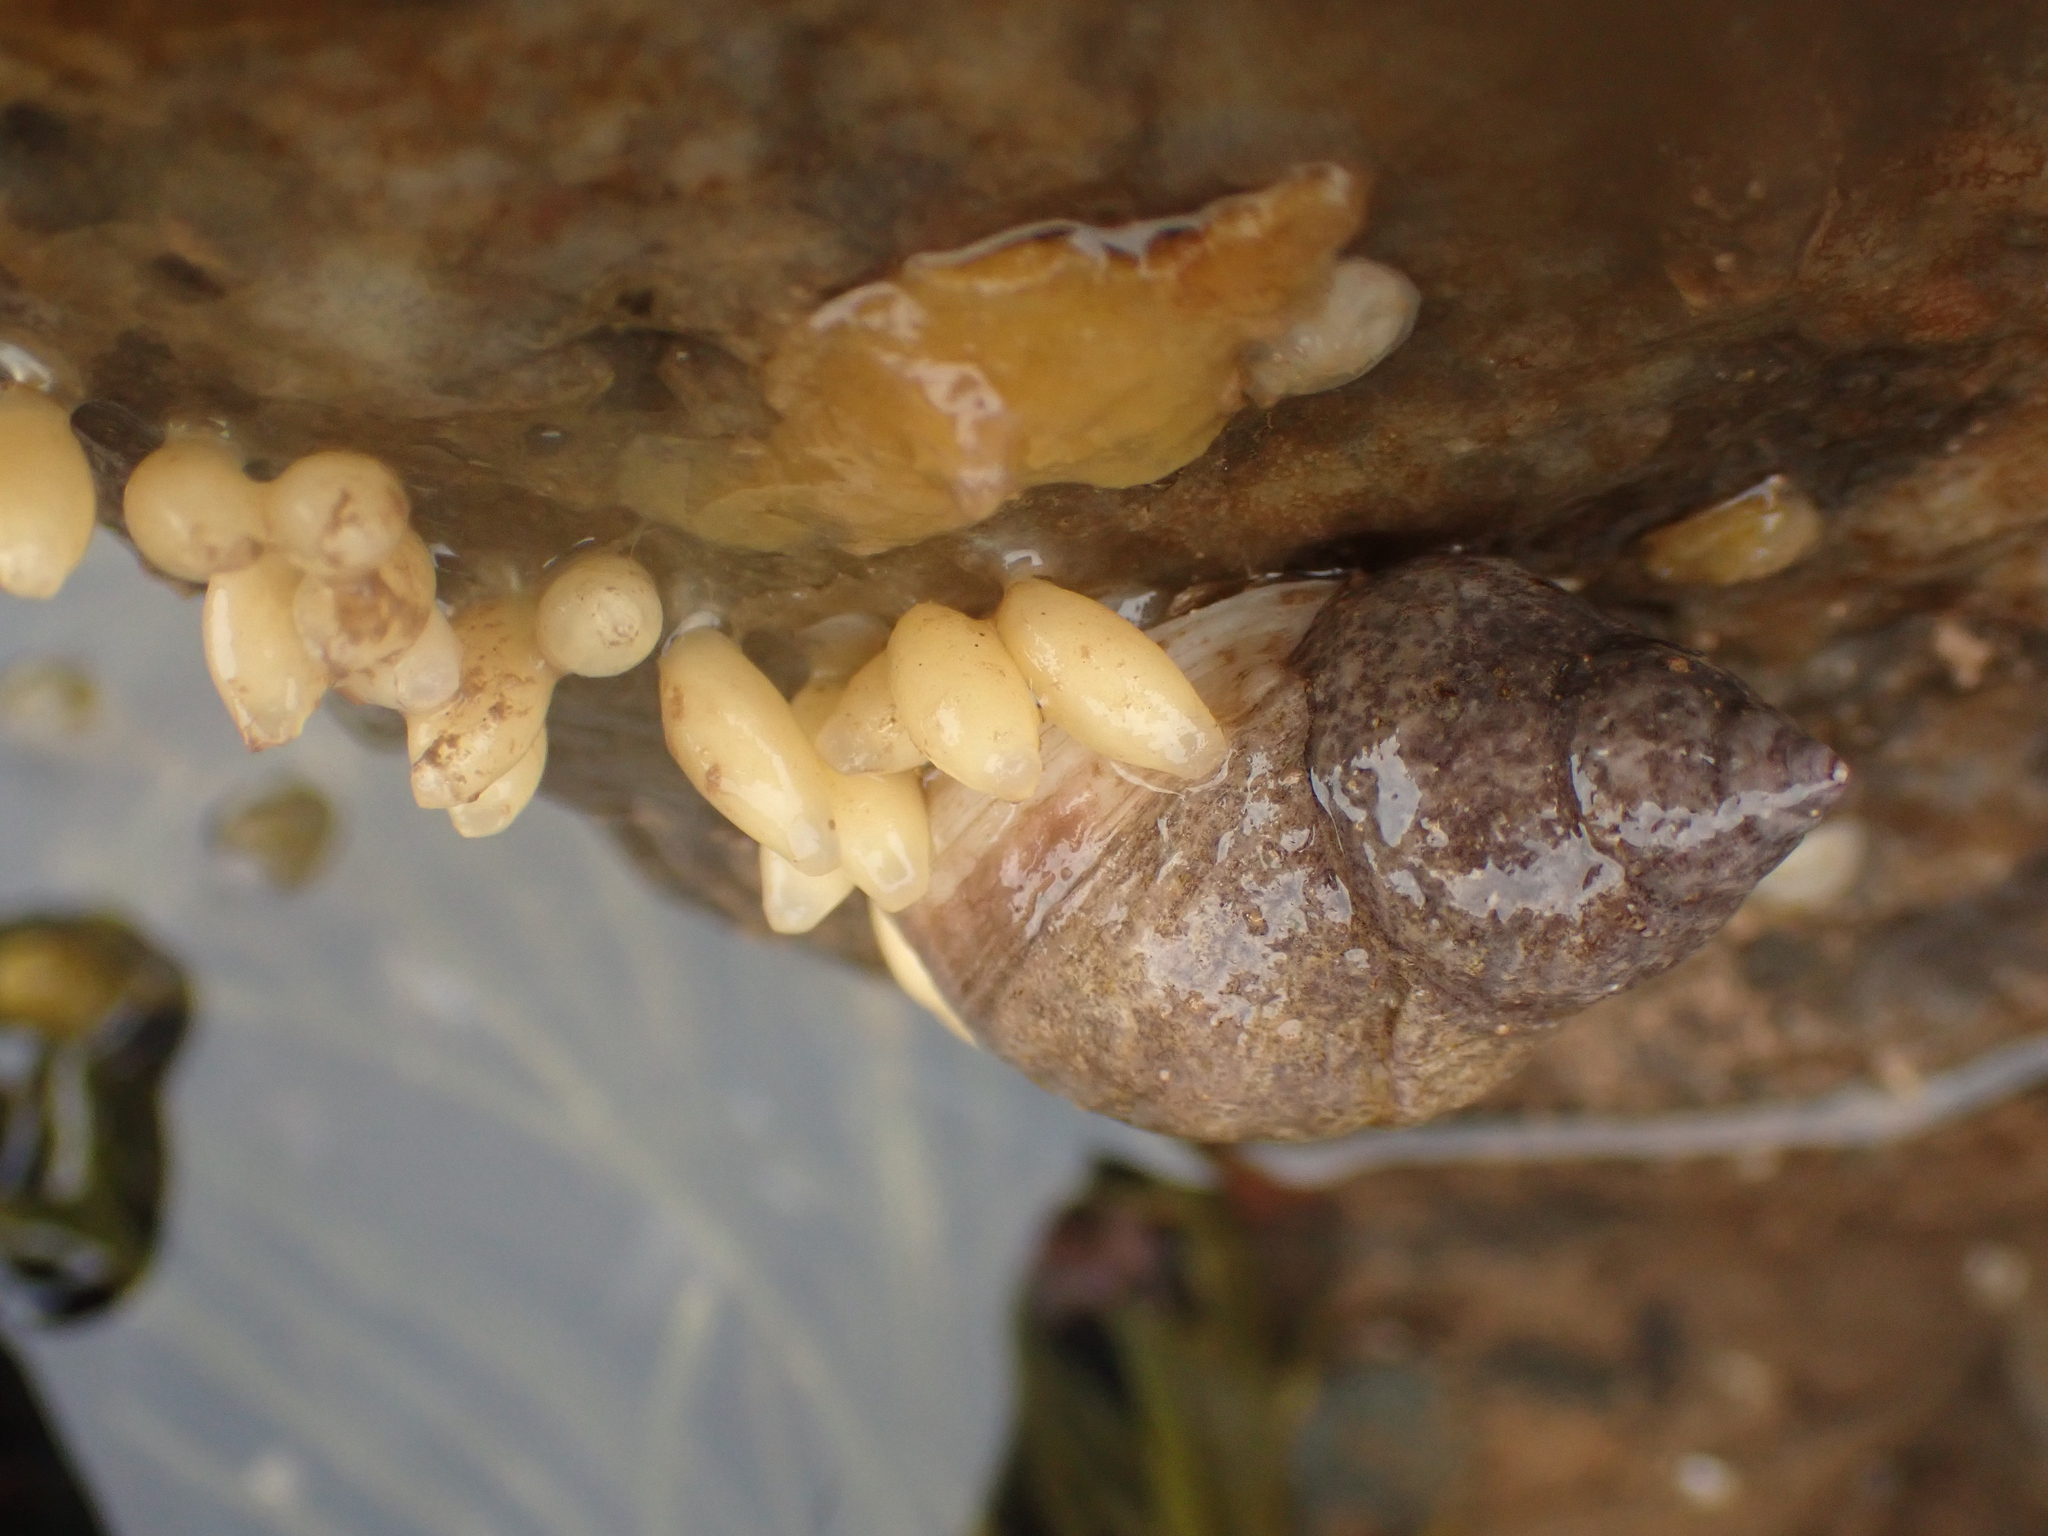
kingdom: Animalia
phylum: Mollusca
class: Gastropoda
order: Neogastropoda
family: Muricidae
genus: Nucella
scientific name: Nucella lapillus
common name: Dog whelk
